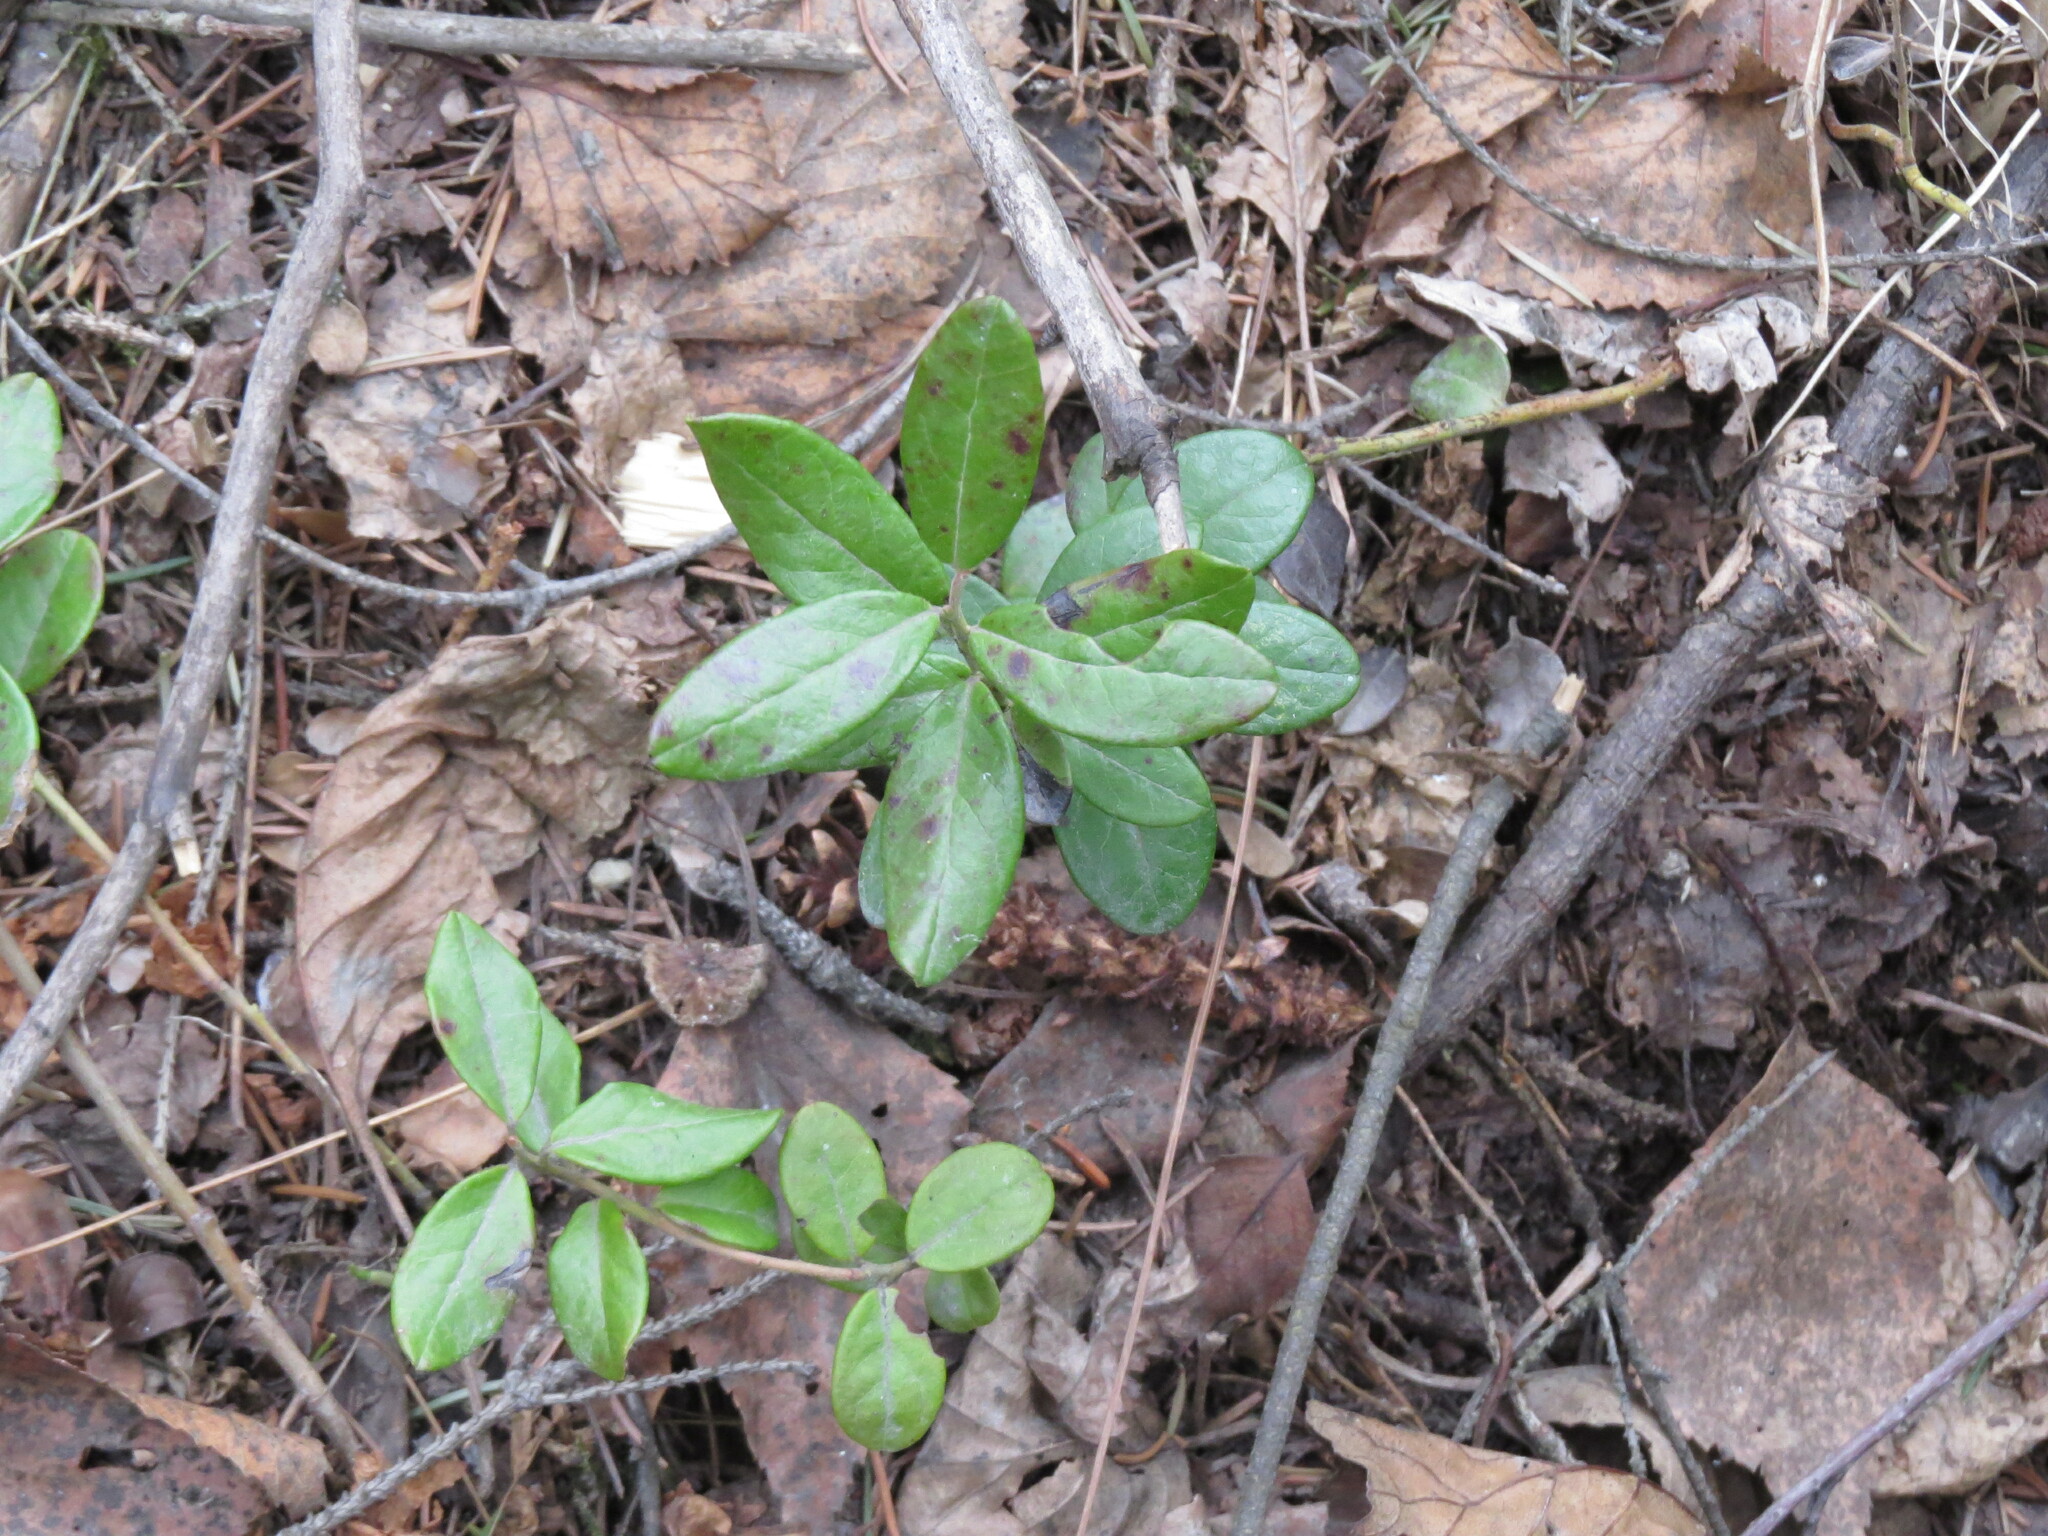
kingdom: Plantae
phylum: Tracheophyta
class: Magnoliopsida
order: Ericales
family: Ericaceae
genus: Vaccinium
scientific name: Vaccinium vitis-idaea
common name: Cowberry
